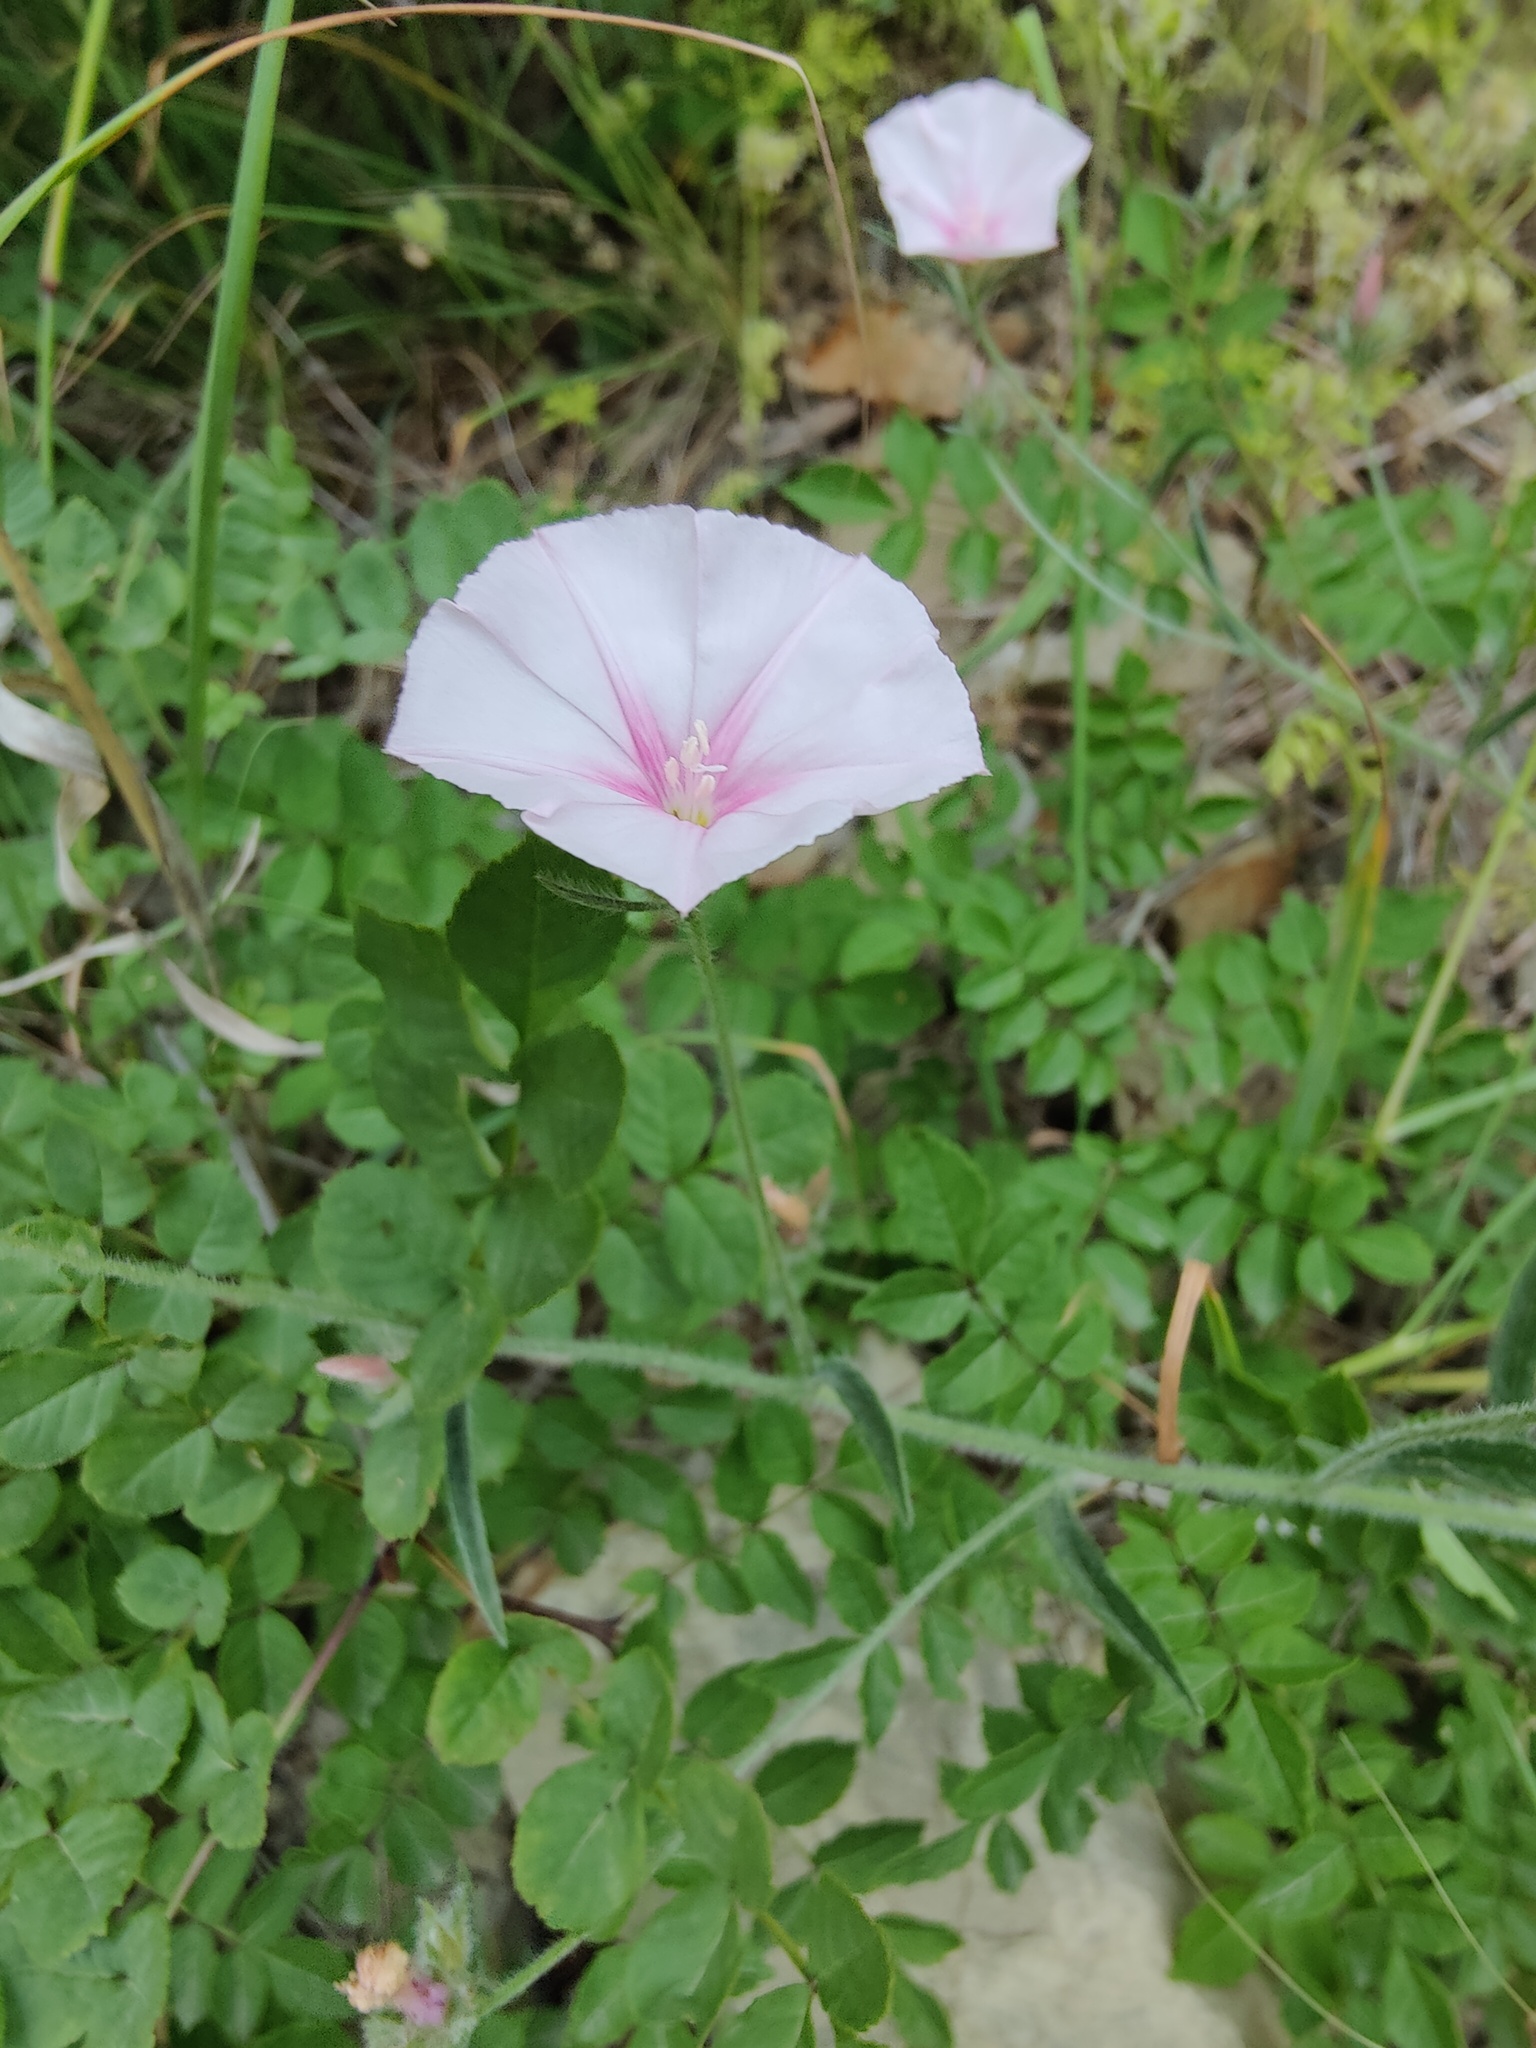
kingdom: Plantae
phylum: Tracheophyta
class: Magnoliopsida
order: Solanales
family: Convolvulaceae
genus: Convolvulus
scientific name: Convolvulus cantabrica
